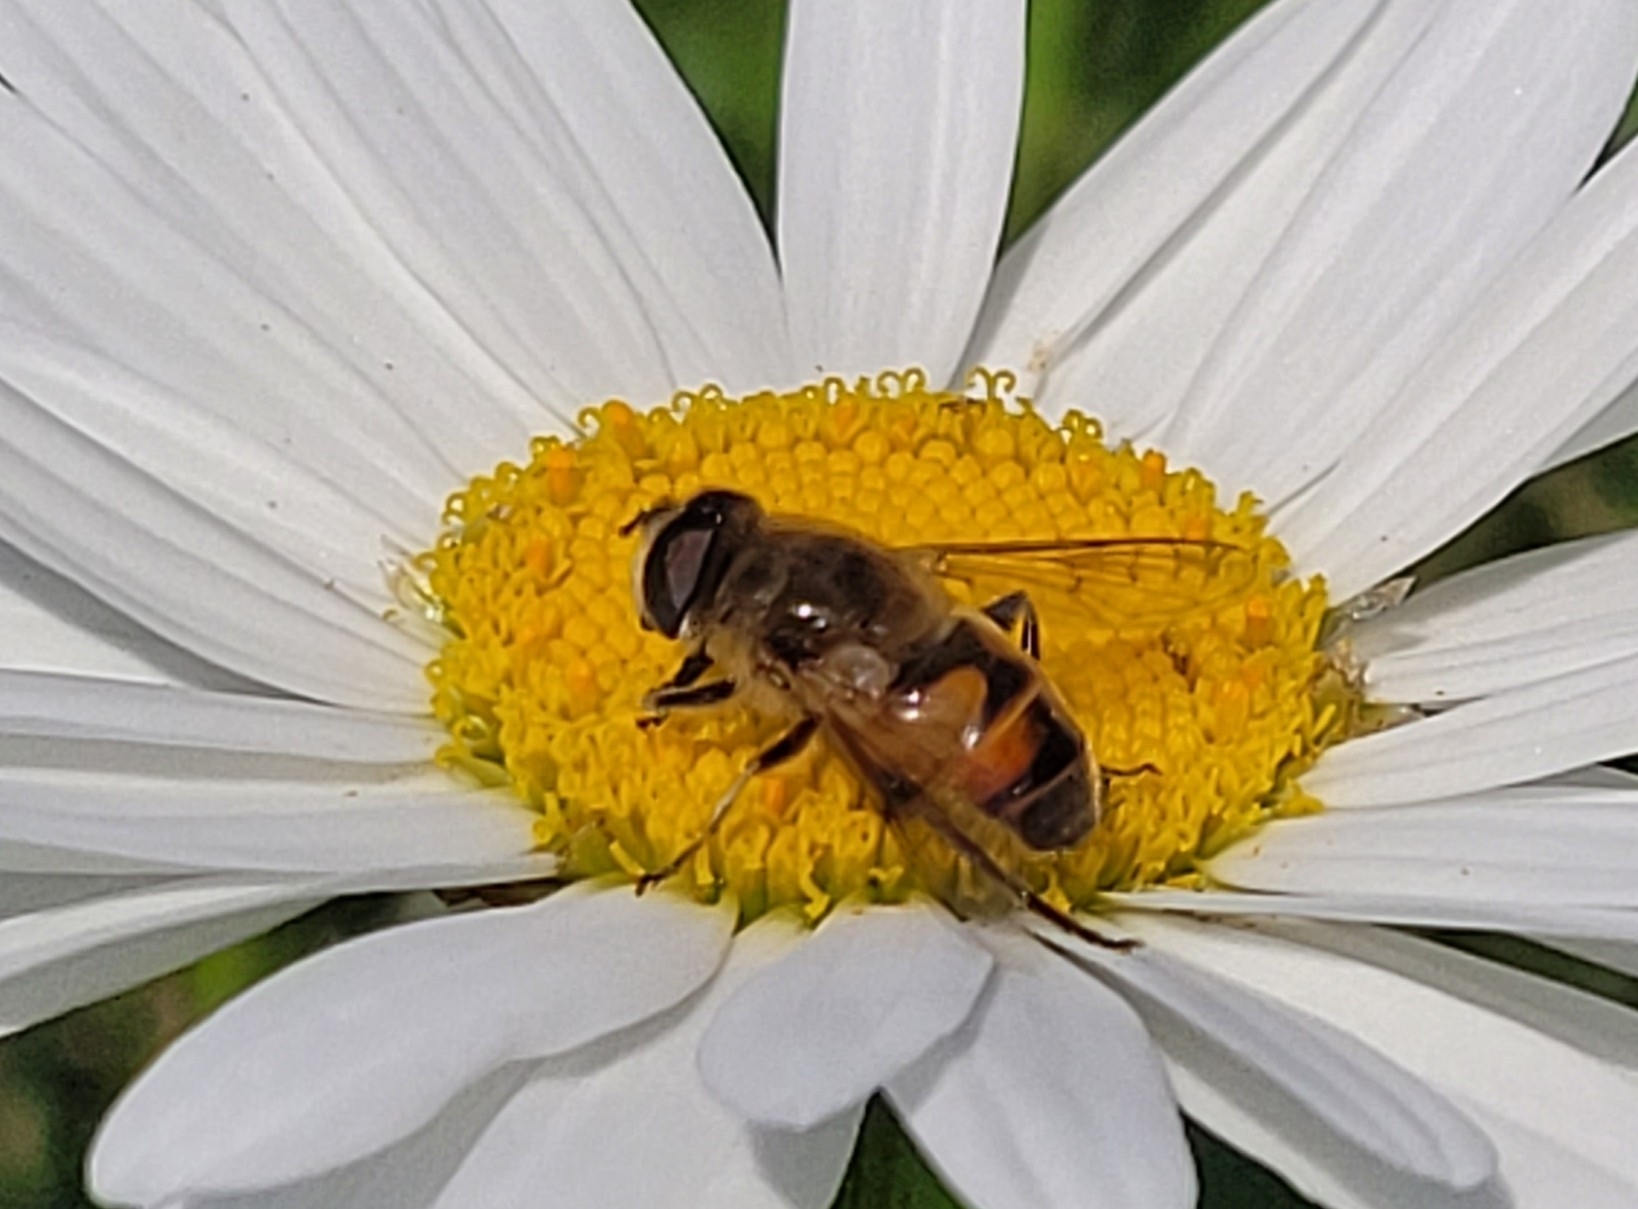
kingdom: Animalia
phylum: Arthropoda
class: Insecta
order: Diptera
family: Syrphidae
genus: Eristalis
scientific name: Eristalis tenax
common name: Drone fly
